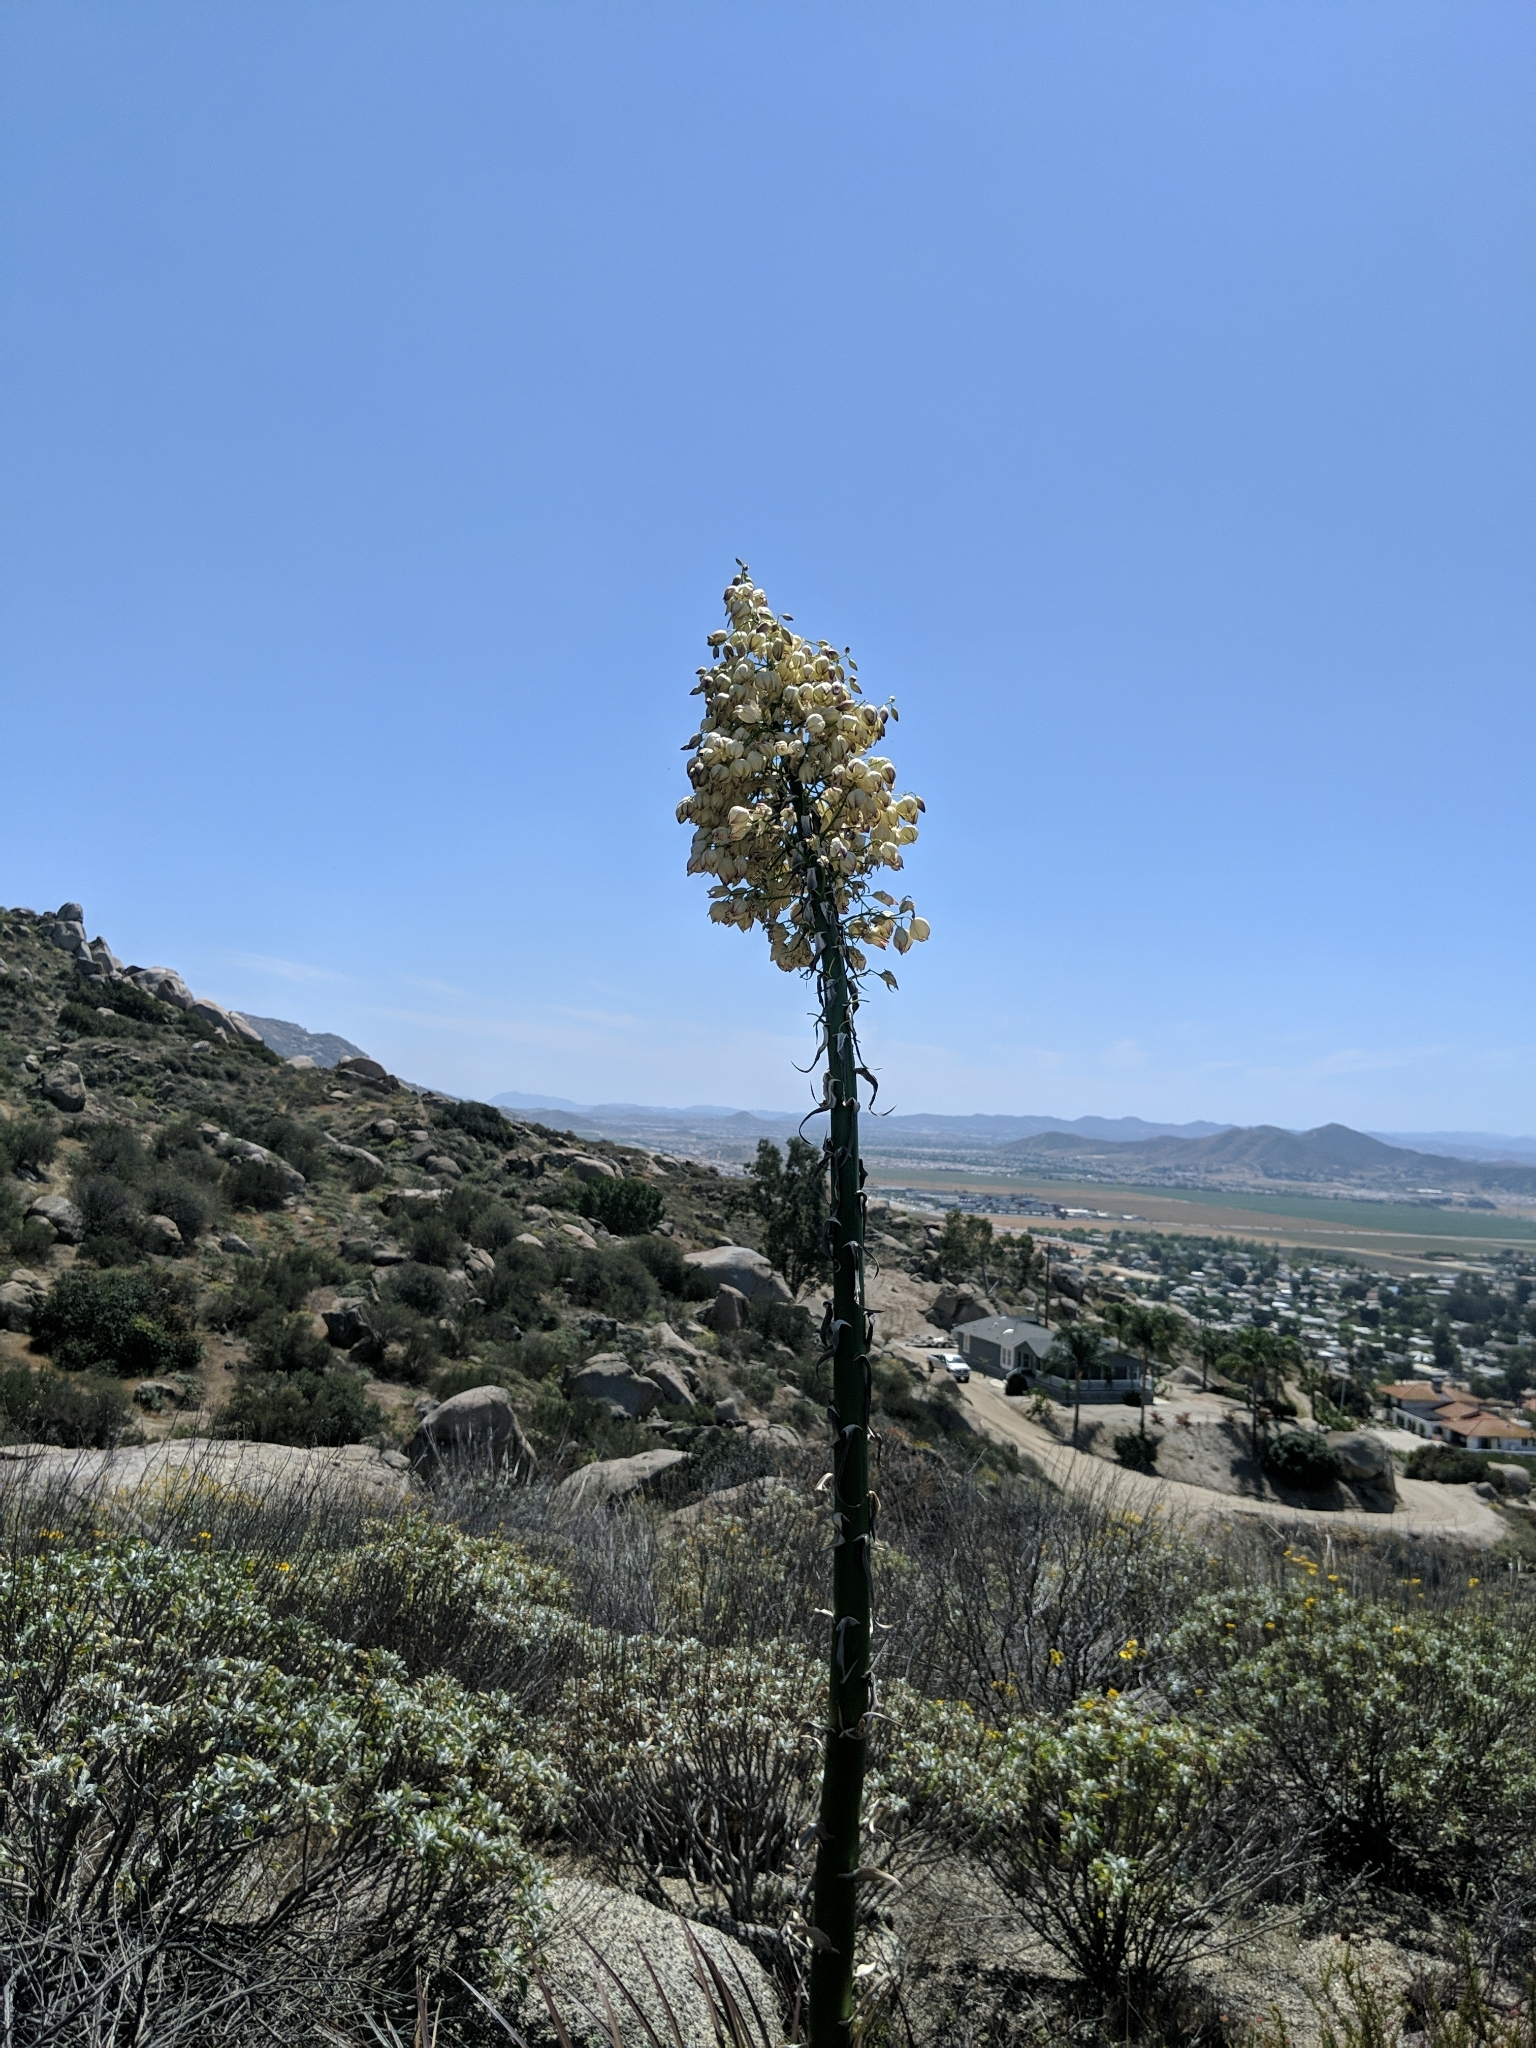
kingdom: Plantae
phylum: Tracheophyta
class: Liliopsida
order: Asparagales
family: Asparagaceae
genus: Hesperoyucca
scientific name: Hesperoyucca whipplei
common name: Our lord's-candle
